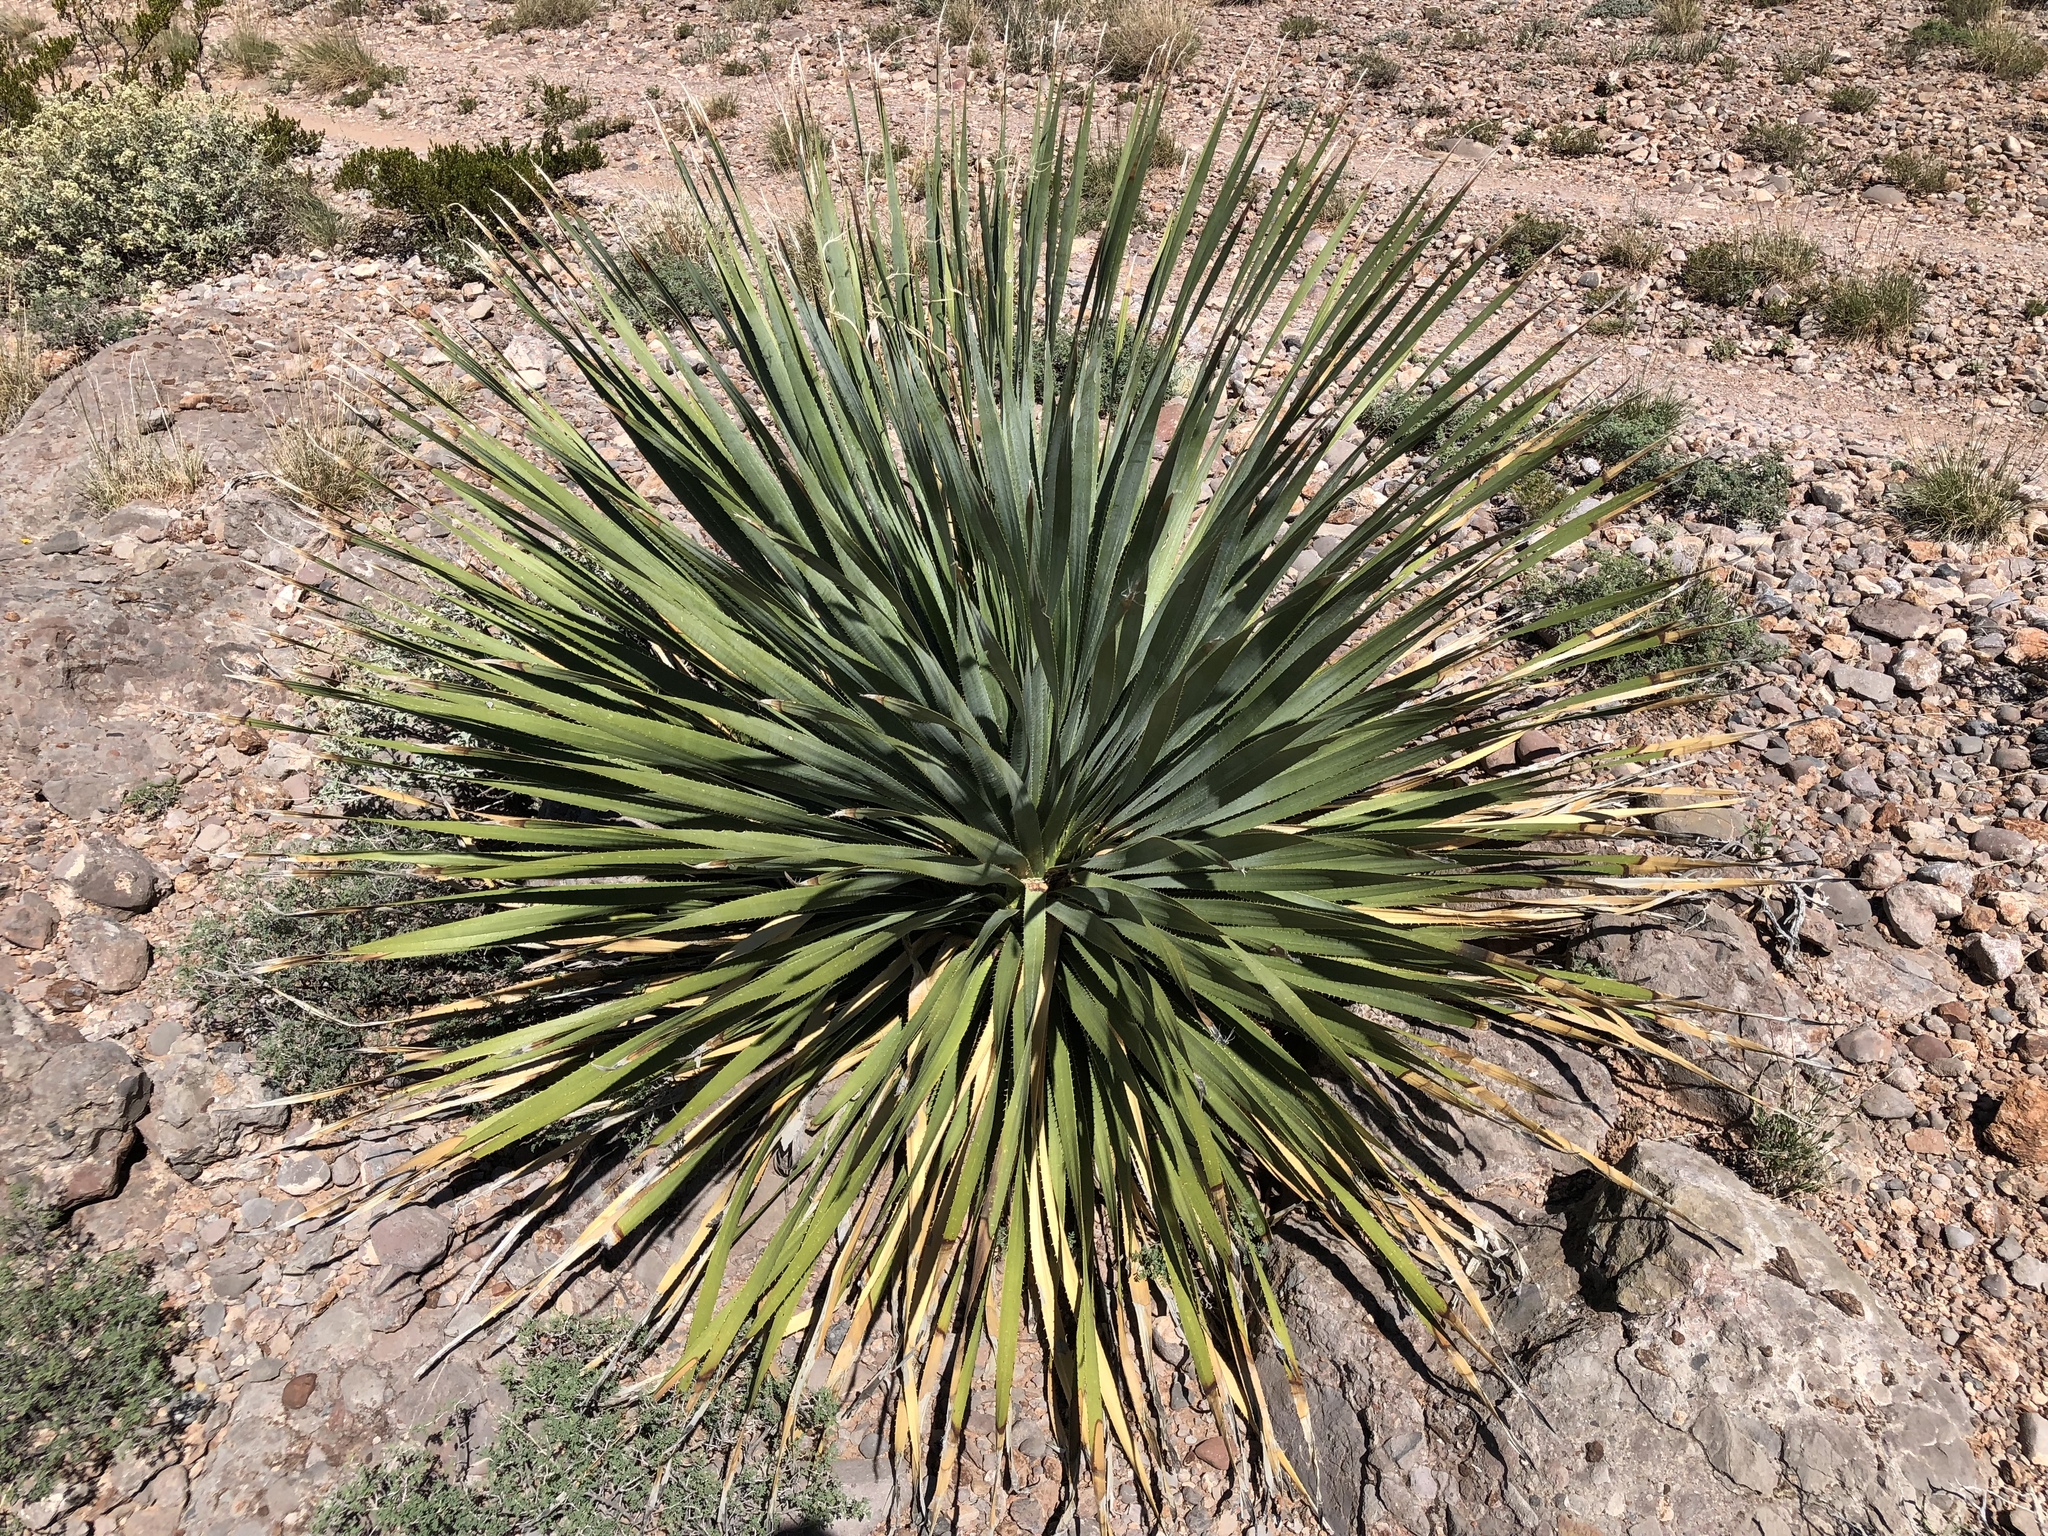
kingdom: Plantae
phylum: Tracheophyta
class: Liliopsida
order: Asparagales
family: Asparagaceae
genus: Dasylirion
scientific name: Dasylirion wheeleri
